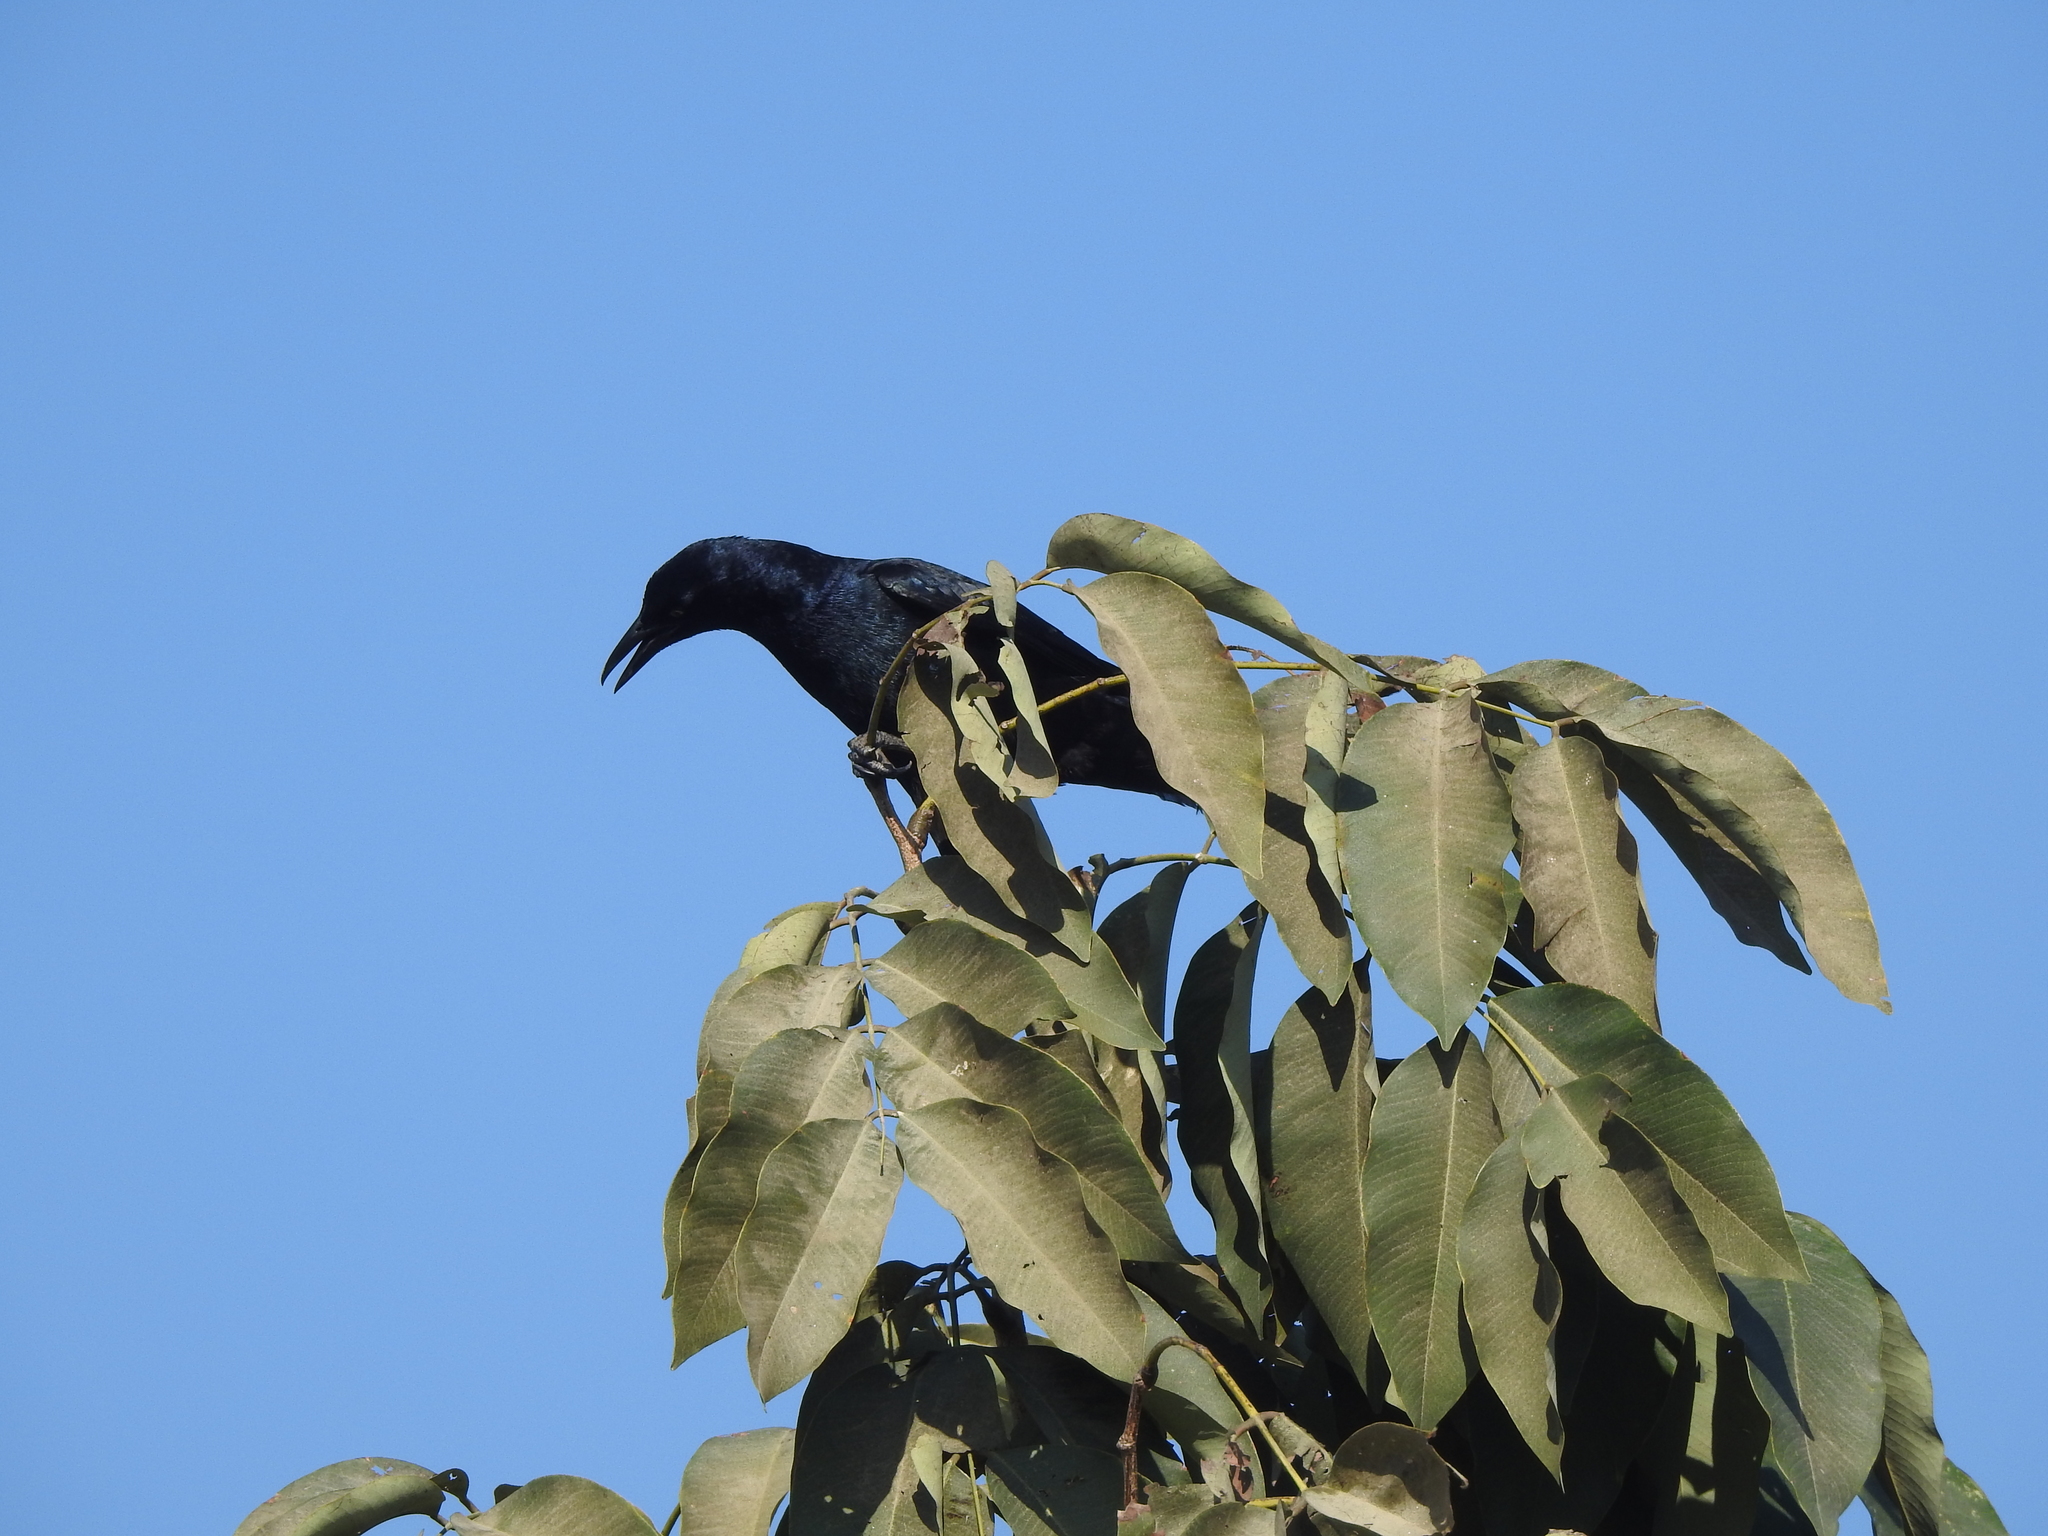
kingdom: Animalia
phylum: Chordata
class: Aves
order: Passeriformes
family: Icteridae
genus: Quiscalus
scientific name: Quiscalus mexicanus
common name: Great-tailed grackle
